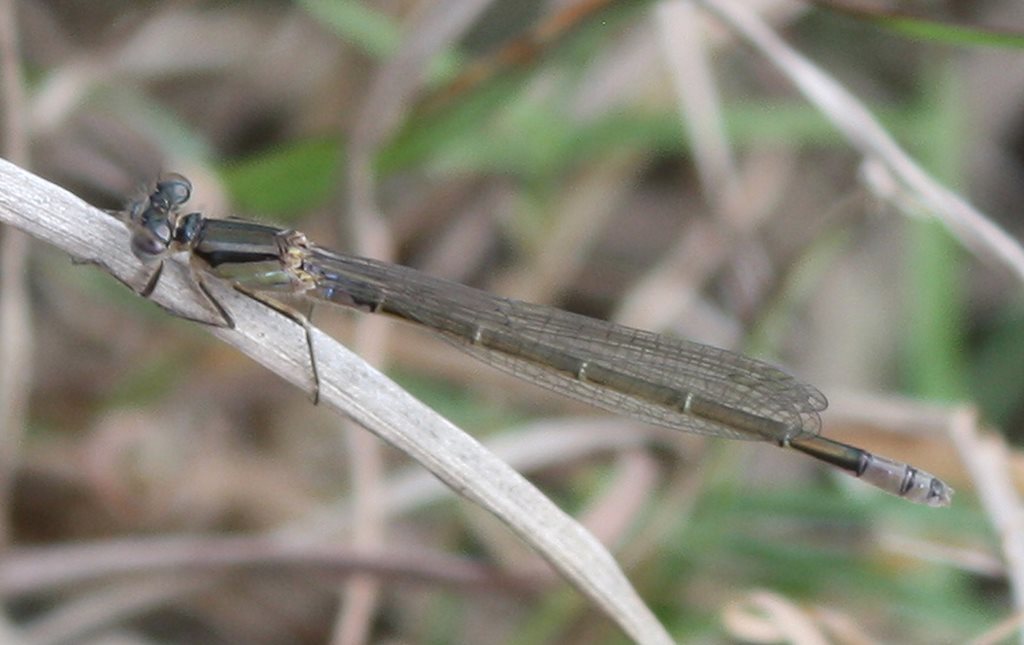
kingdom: Animalia
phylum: Arthropoda
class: Insecta
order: Odonata
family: Coenagrionidae
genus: Ischnura
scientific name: Ischnura heterosticta
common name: Common bluetail
